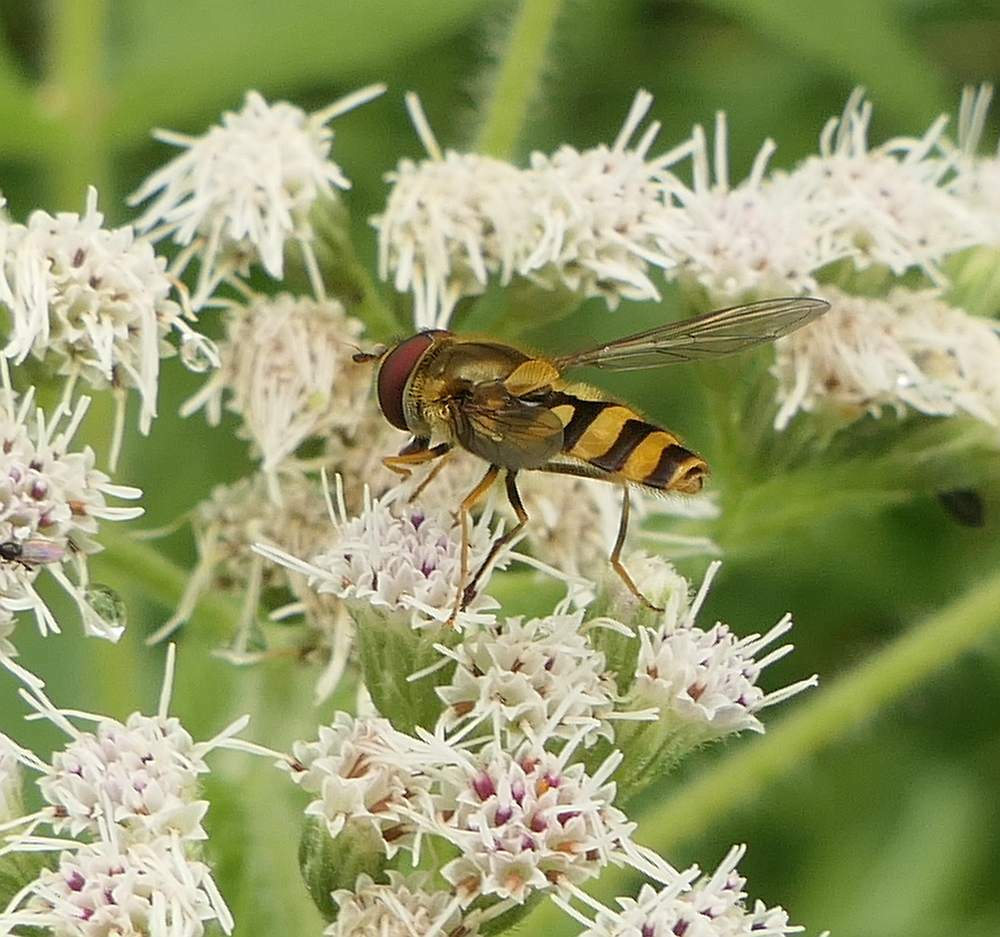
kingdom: Animalia
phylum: Arthropoda
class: Insecta
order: Diptera
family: Syrphidae
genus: Syrphus
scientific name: Syrphus
